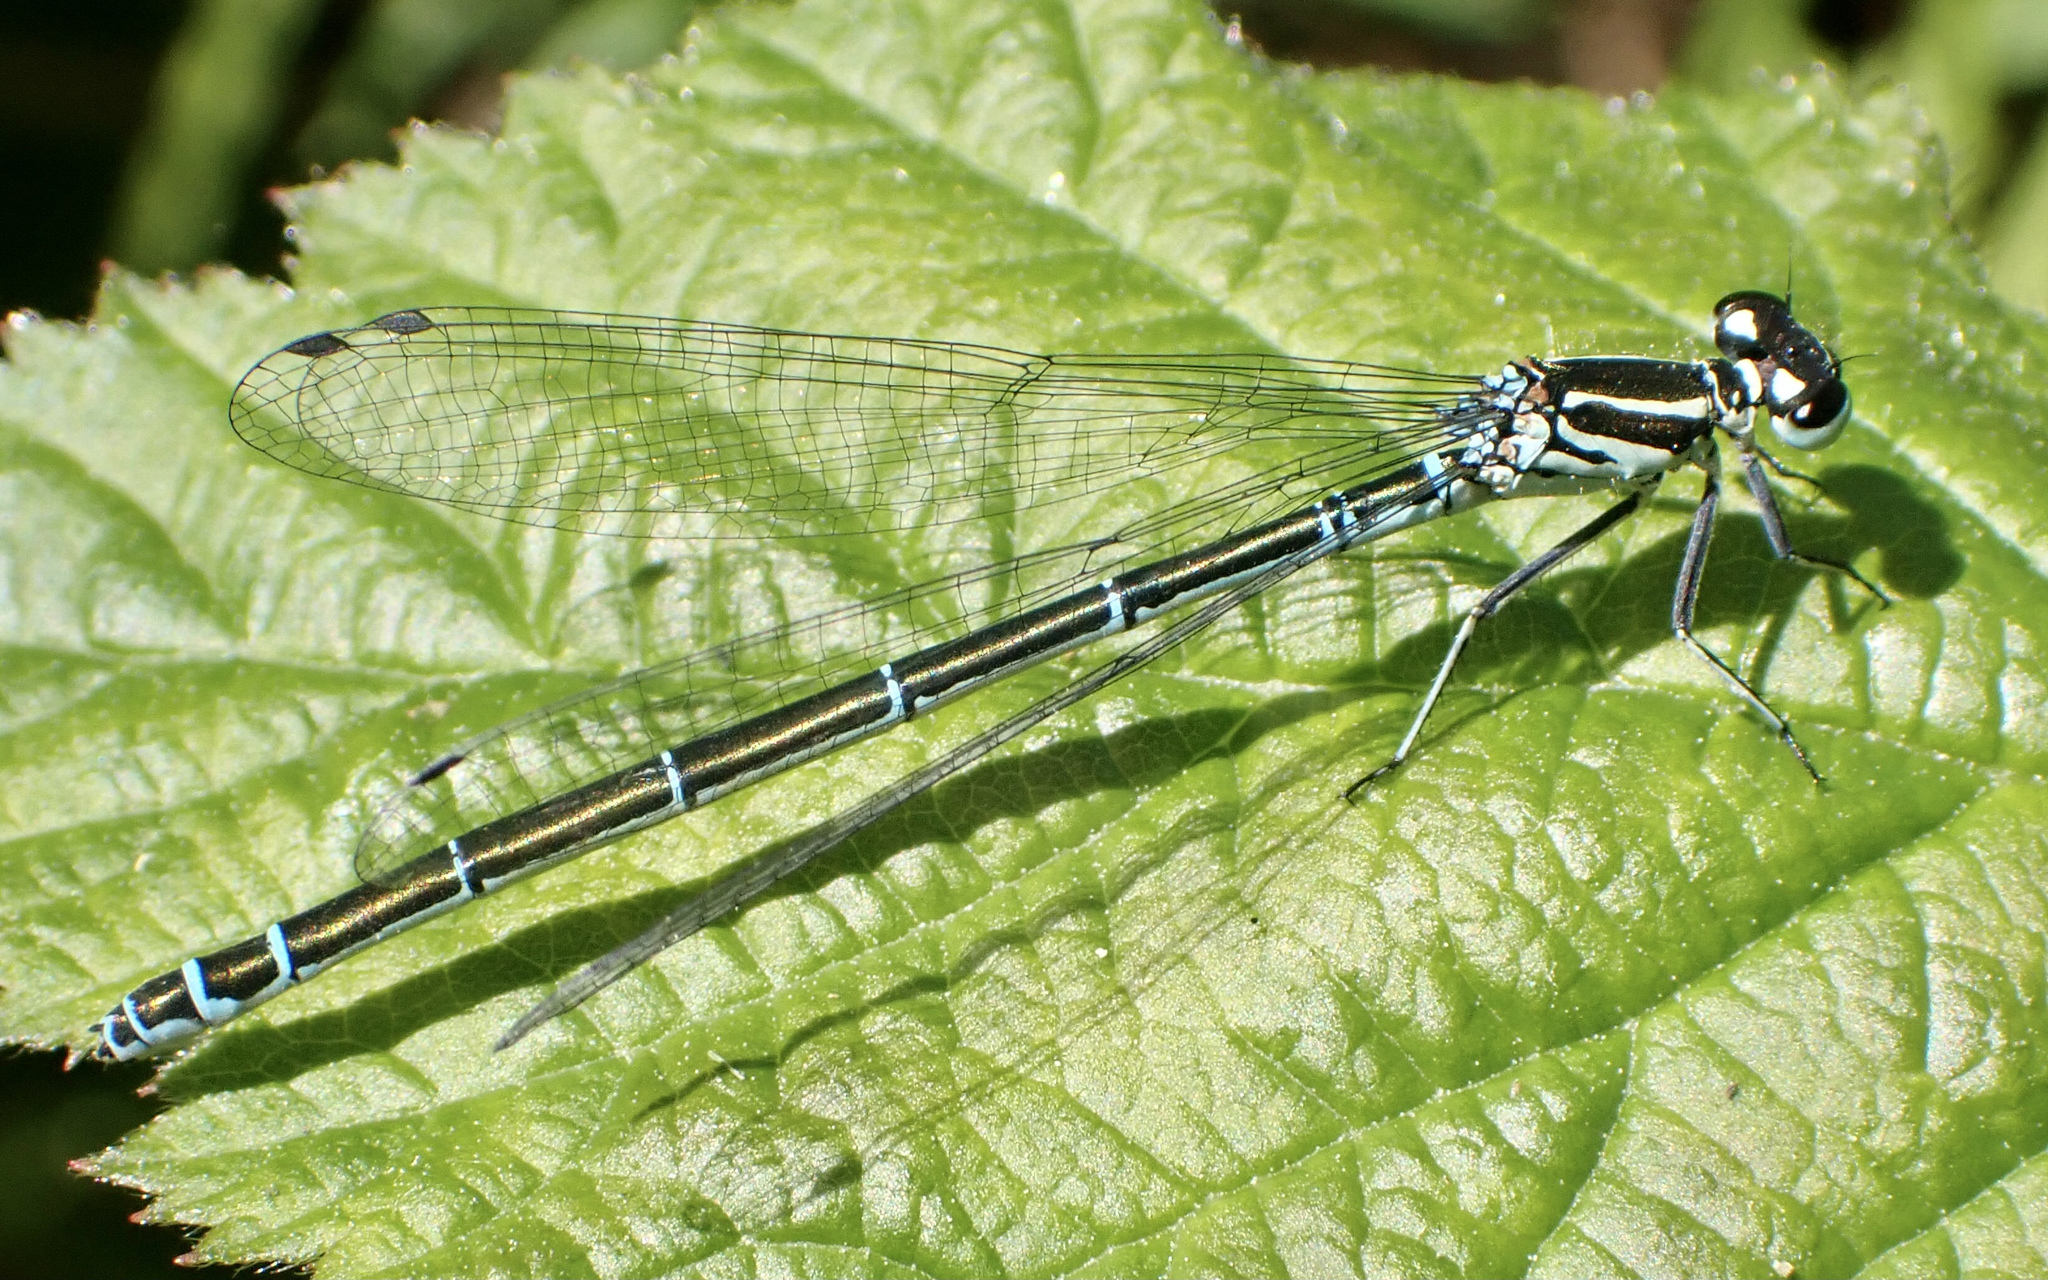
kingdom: Animalia
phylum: Arthropoda
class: Insecta
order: Odonata
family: Coenagrionidae
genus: Coenagrion
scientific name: Coenagrion puella
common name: Azure damselfly
